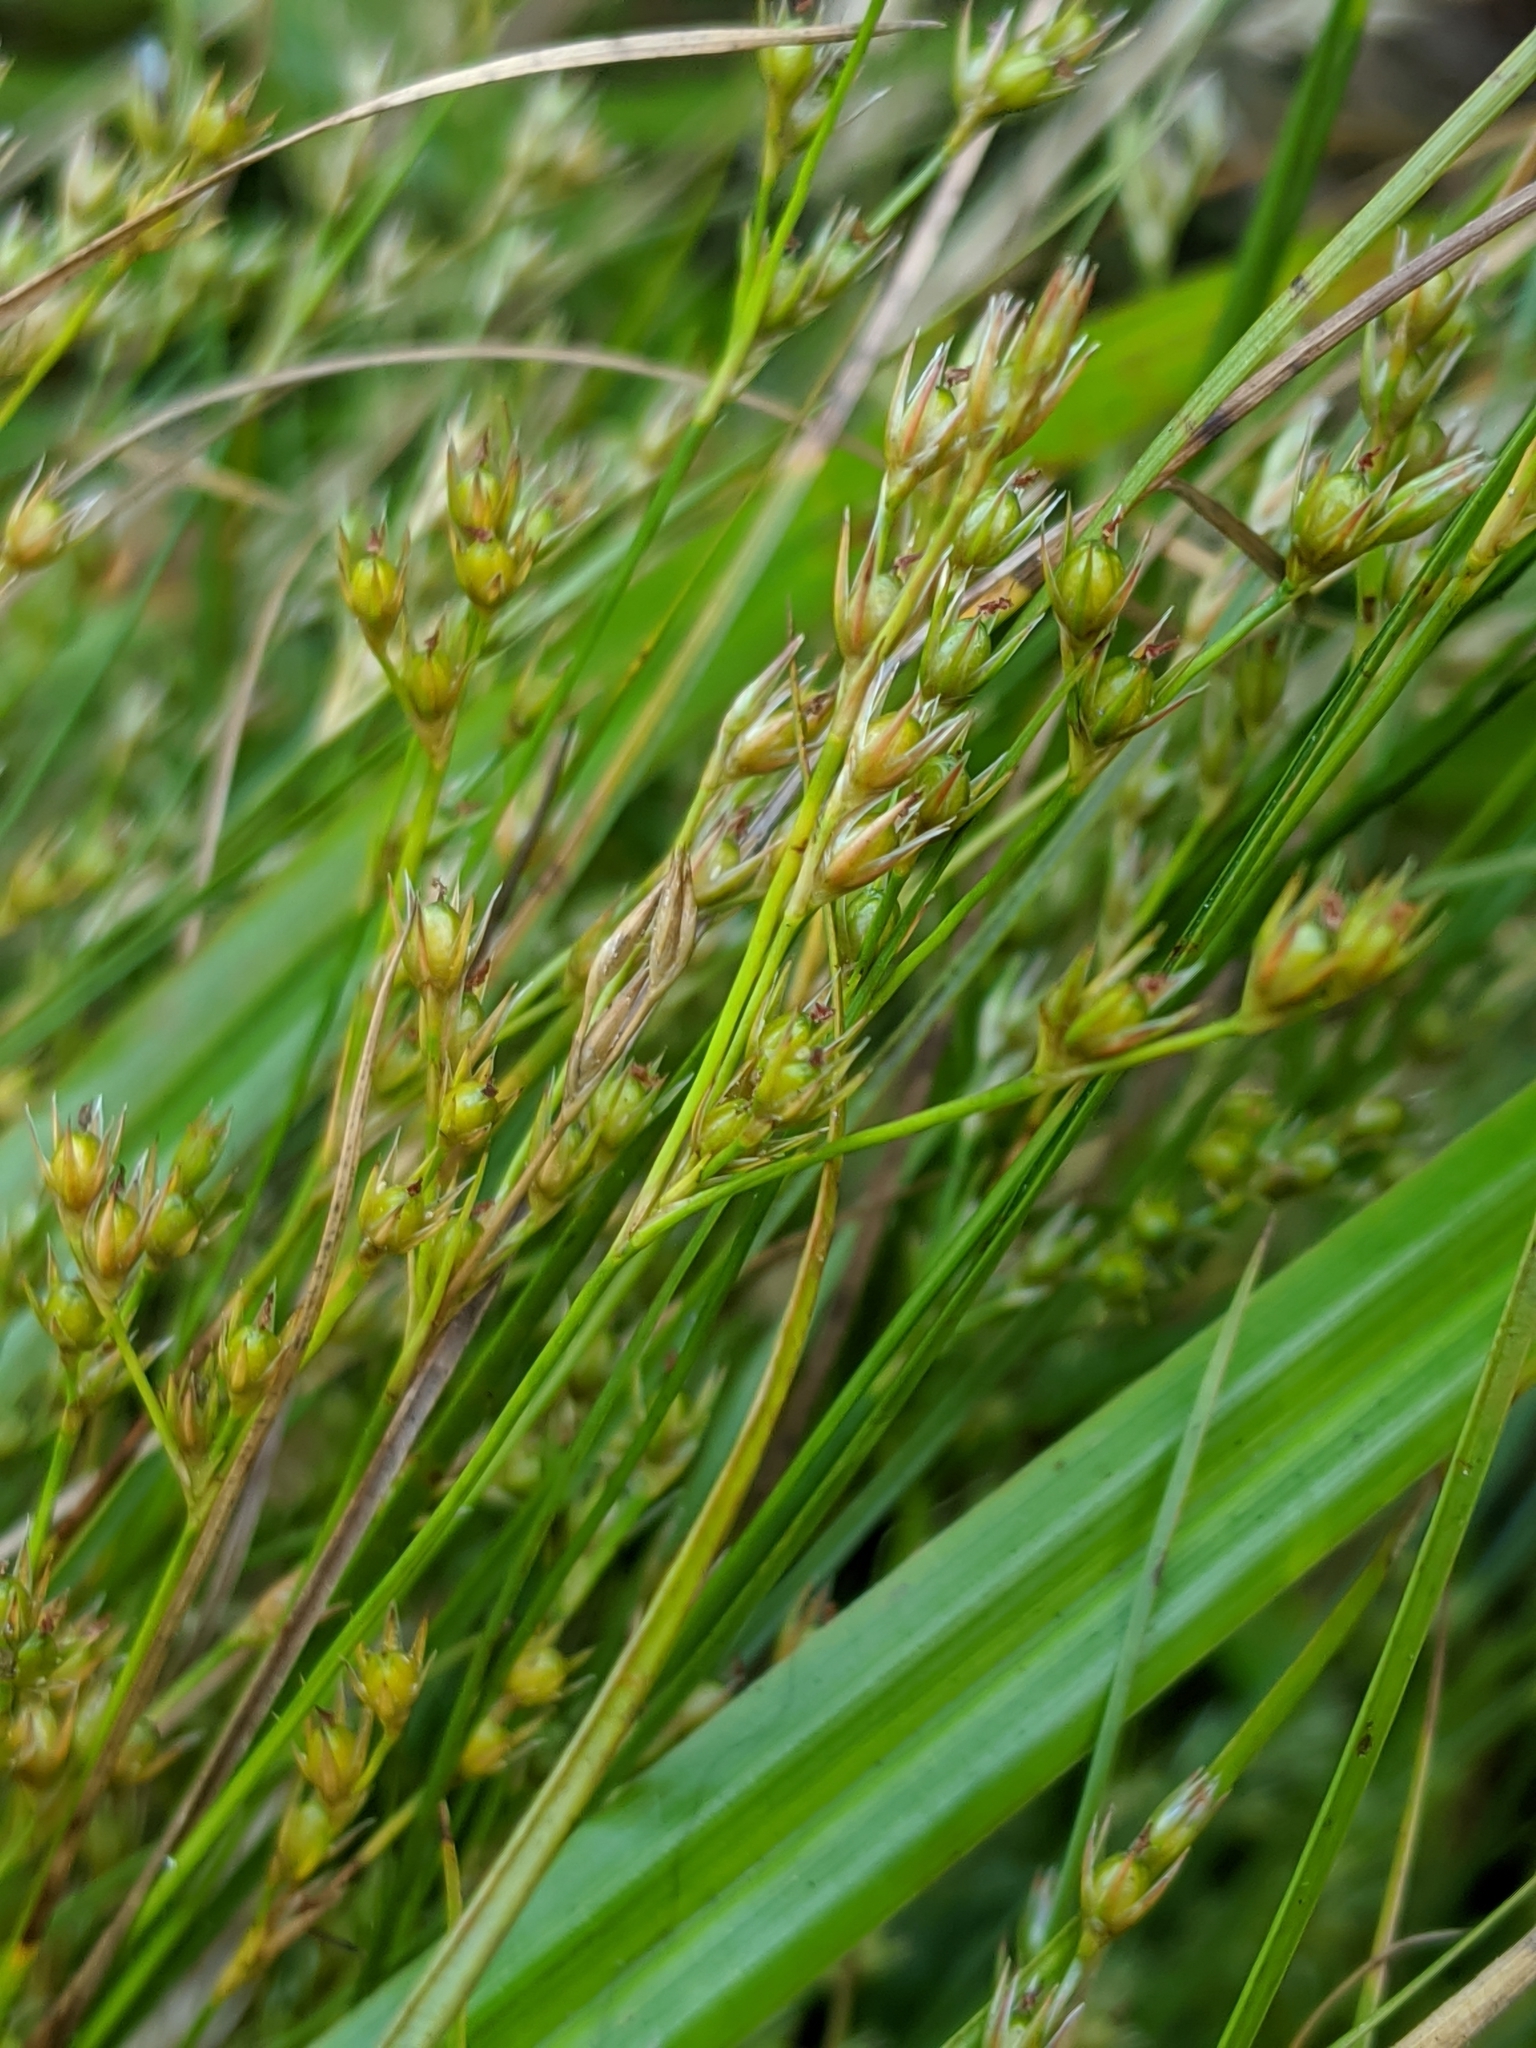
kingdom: Plantae
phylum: Tracheophyta
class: Liliopsida
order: Poales
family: Juncaceae
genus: Juncus
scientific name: Juncus tenuis
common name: Slender rush
